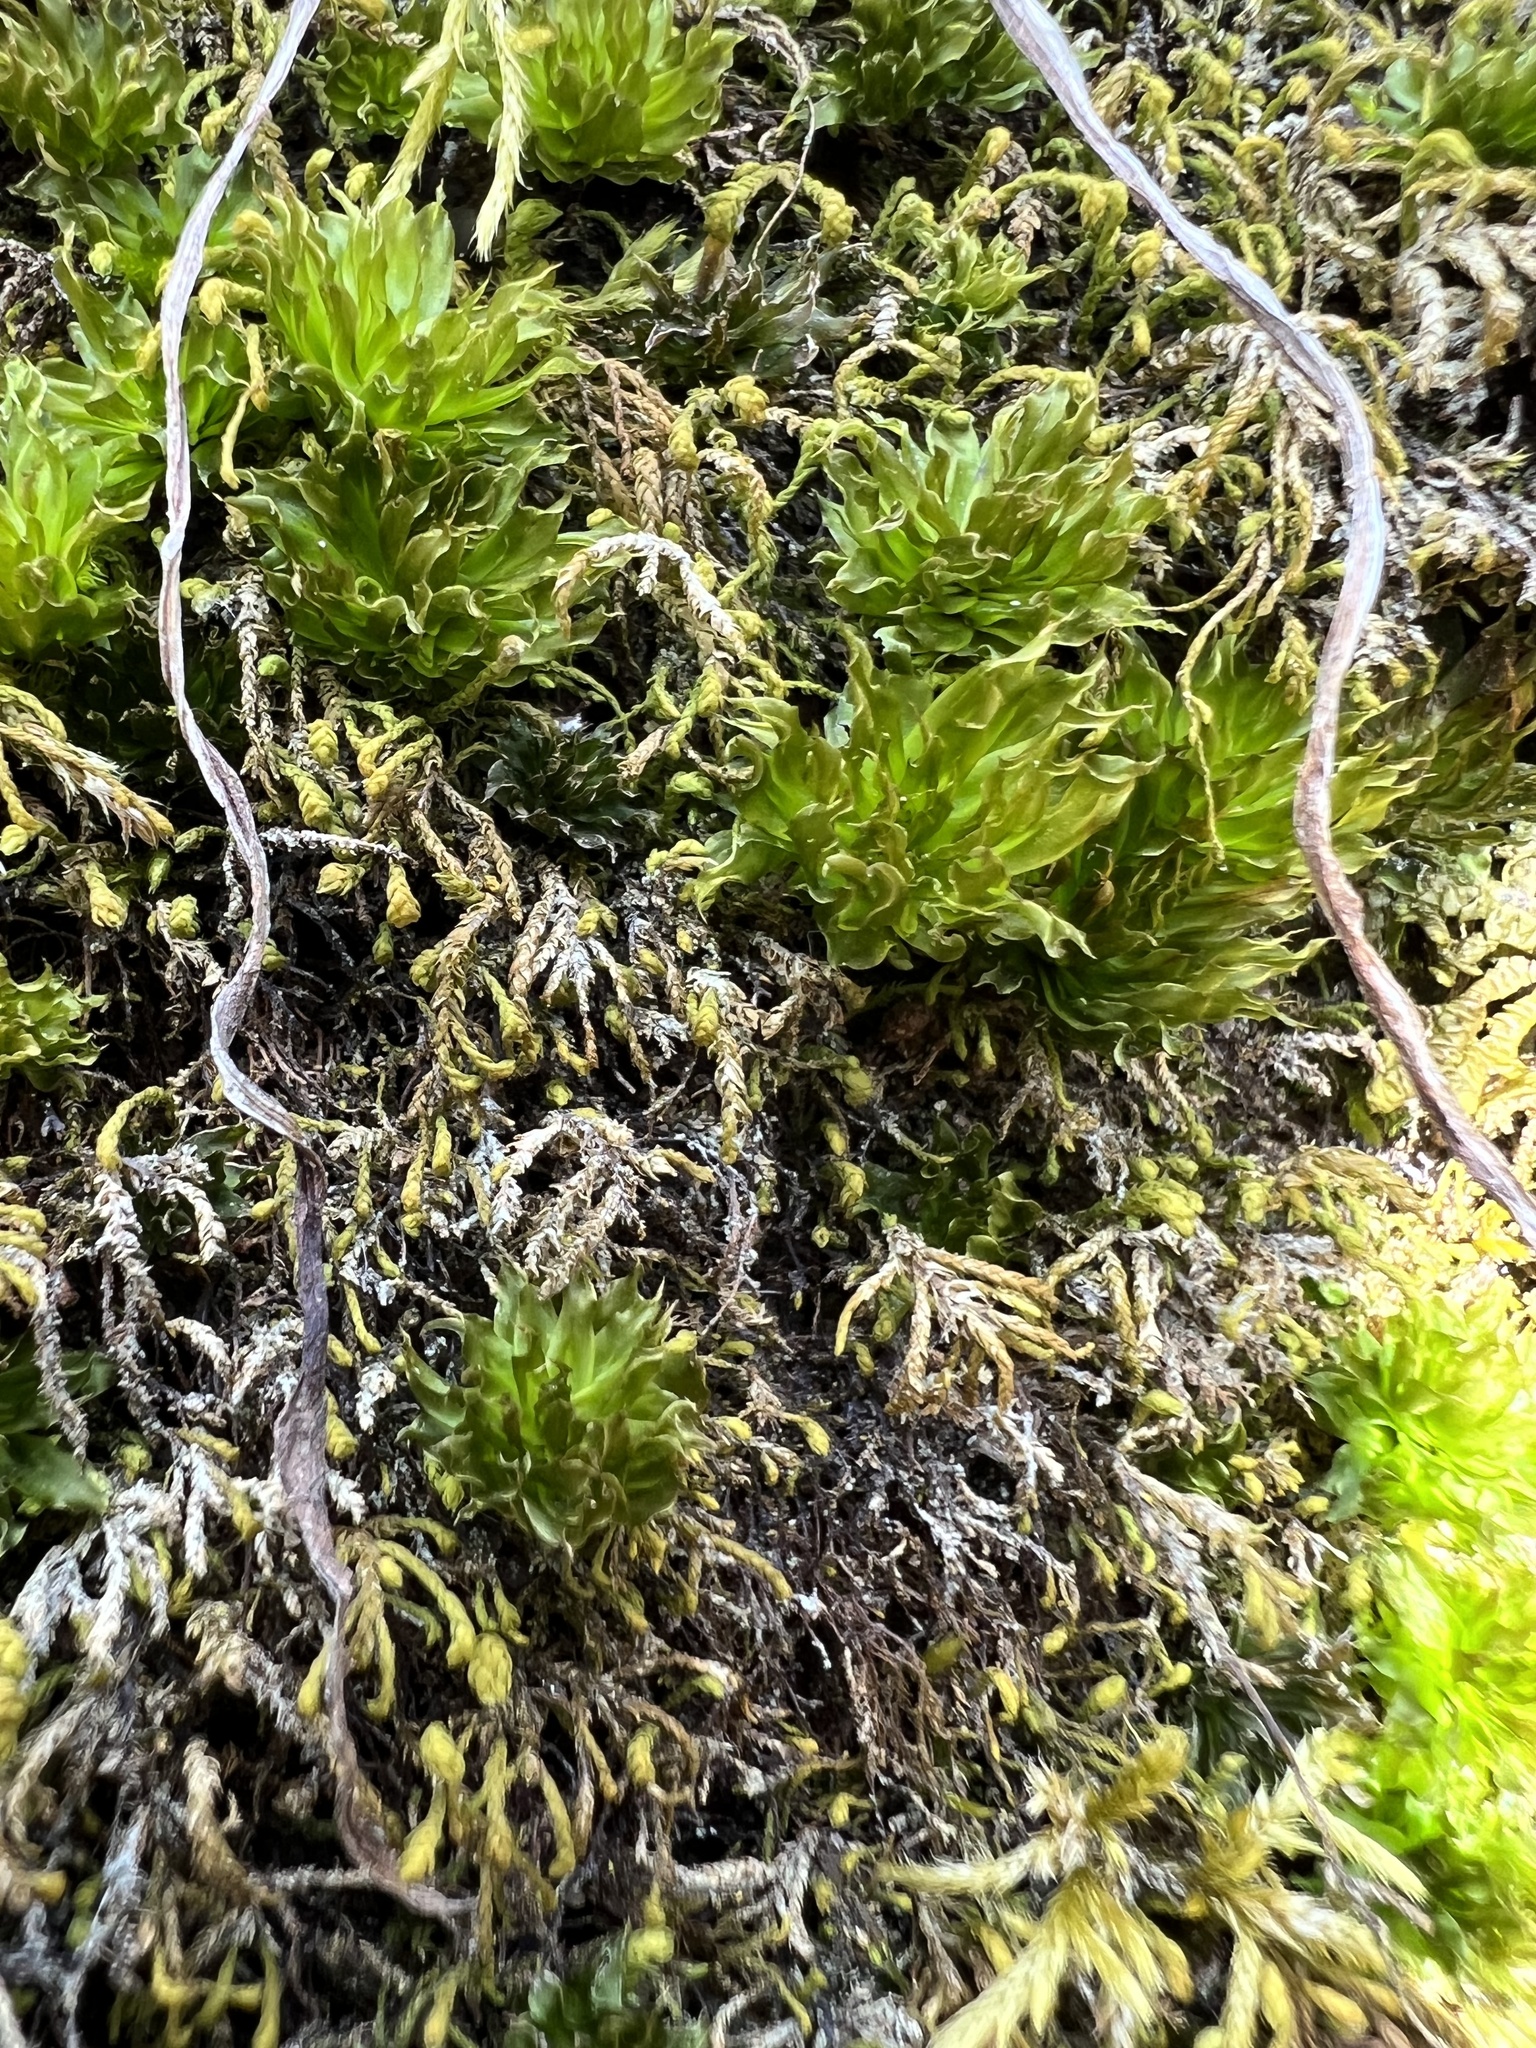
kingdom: Plantae
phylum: Bryophyta
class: Bryopsida
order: Bryales
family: Bryaceae
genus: Rhodobryum
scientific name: Rhodobryum ontariense
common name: Ontario rhodobryum moss
